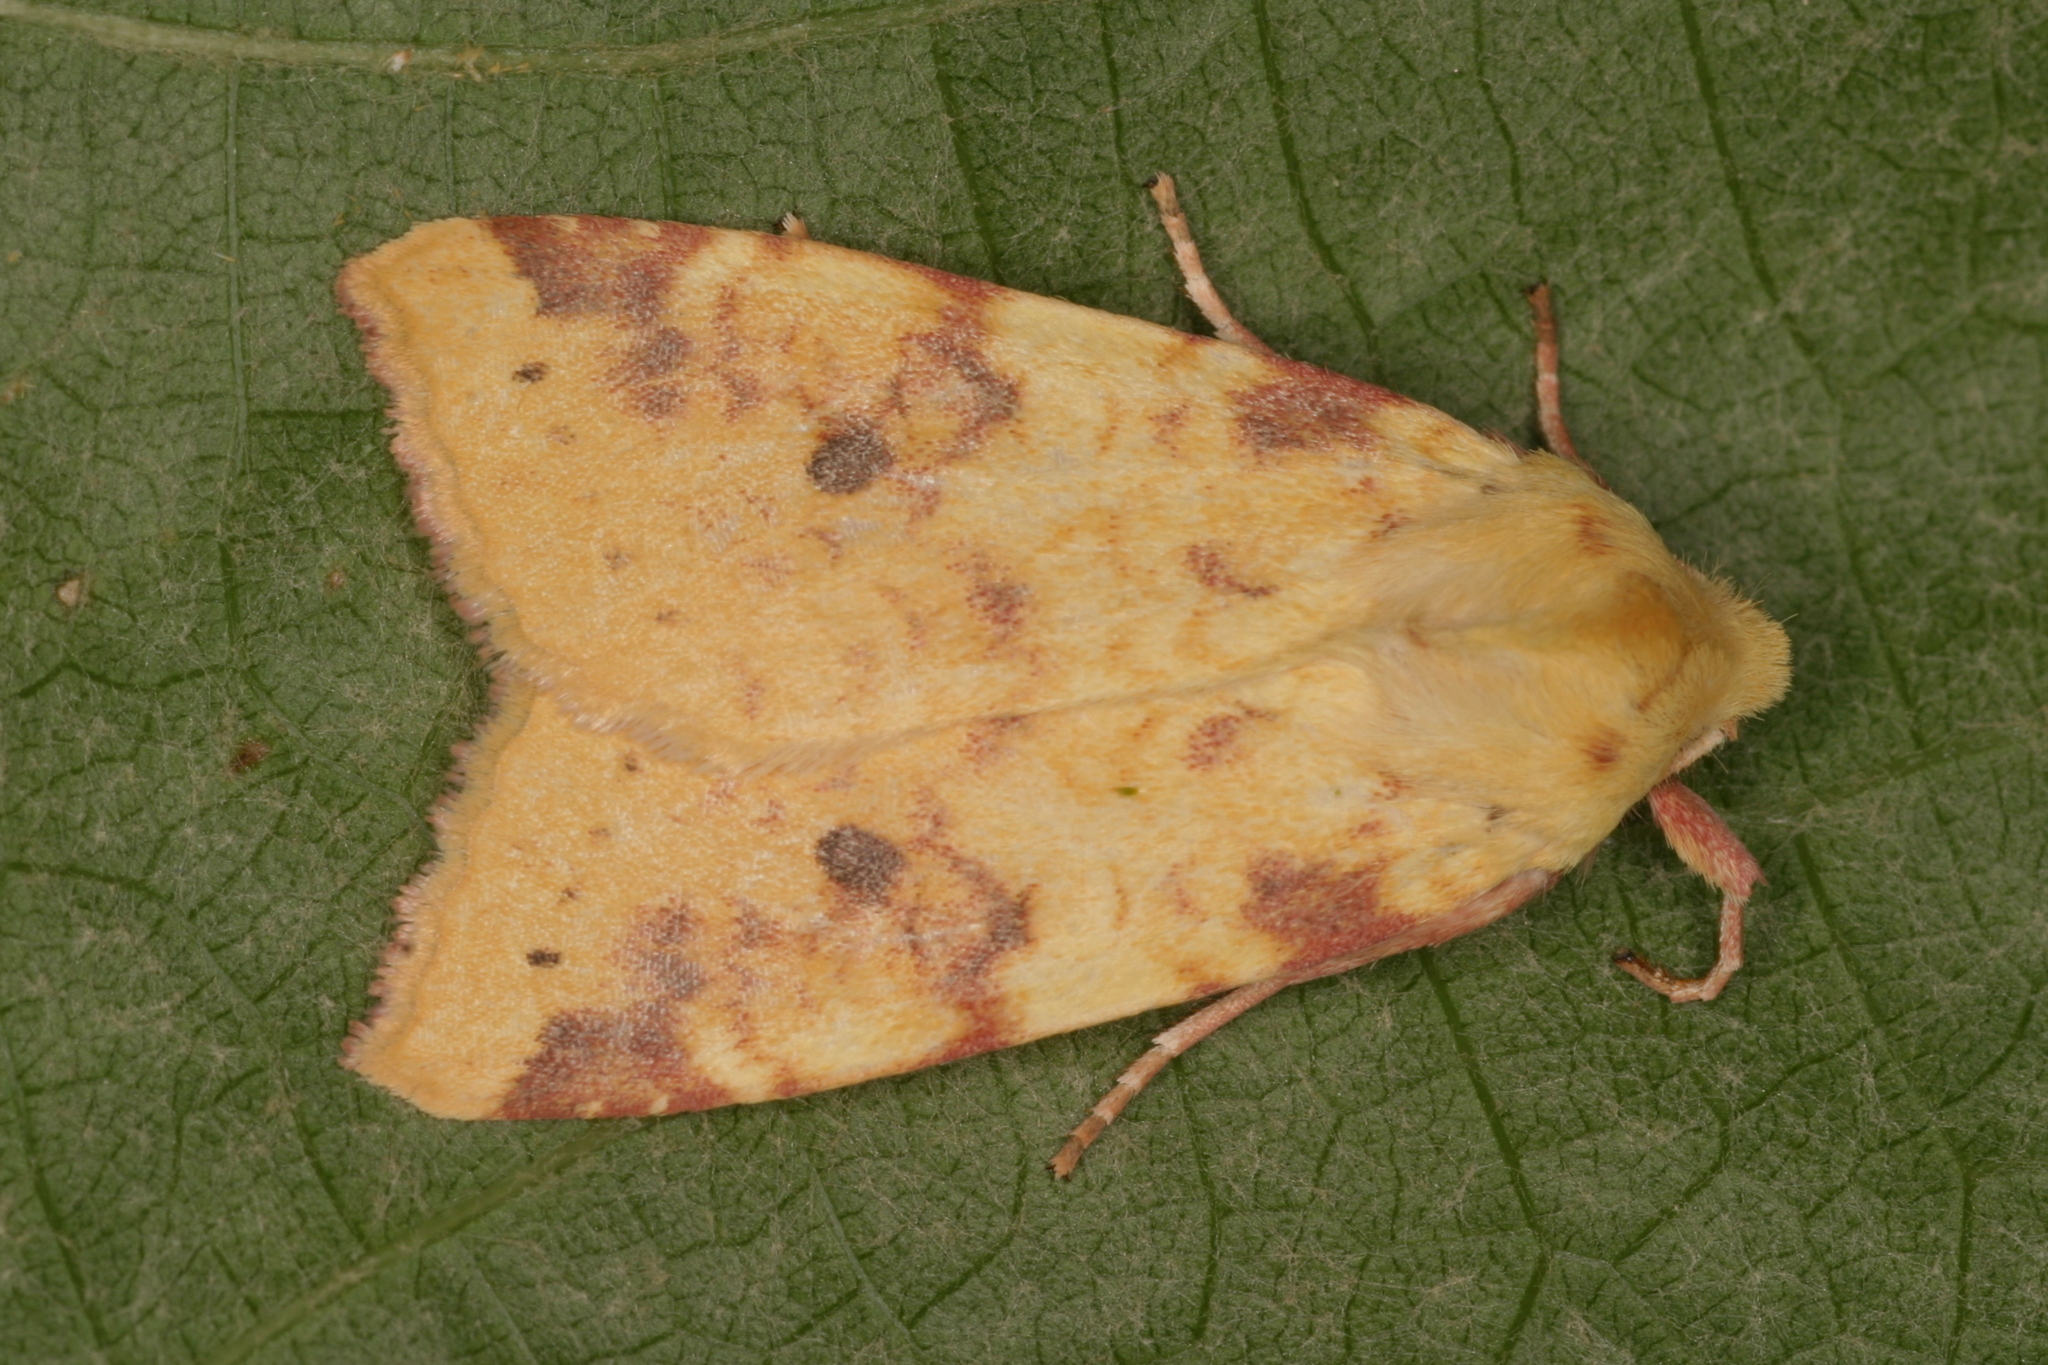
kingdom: Animalia
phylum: Arthropoda
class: Insecta
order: Lepidoptera
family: Noctuidae
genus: Xanthia
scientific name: Xanthia icteritia
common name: The sallow
